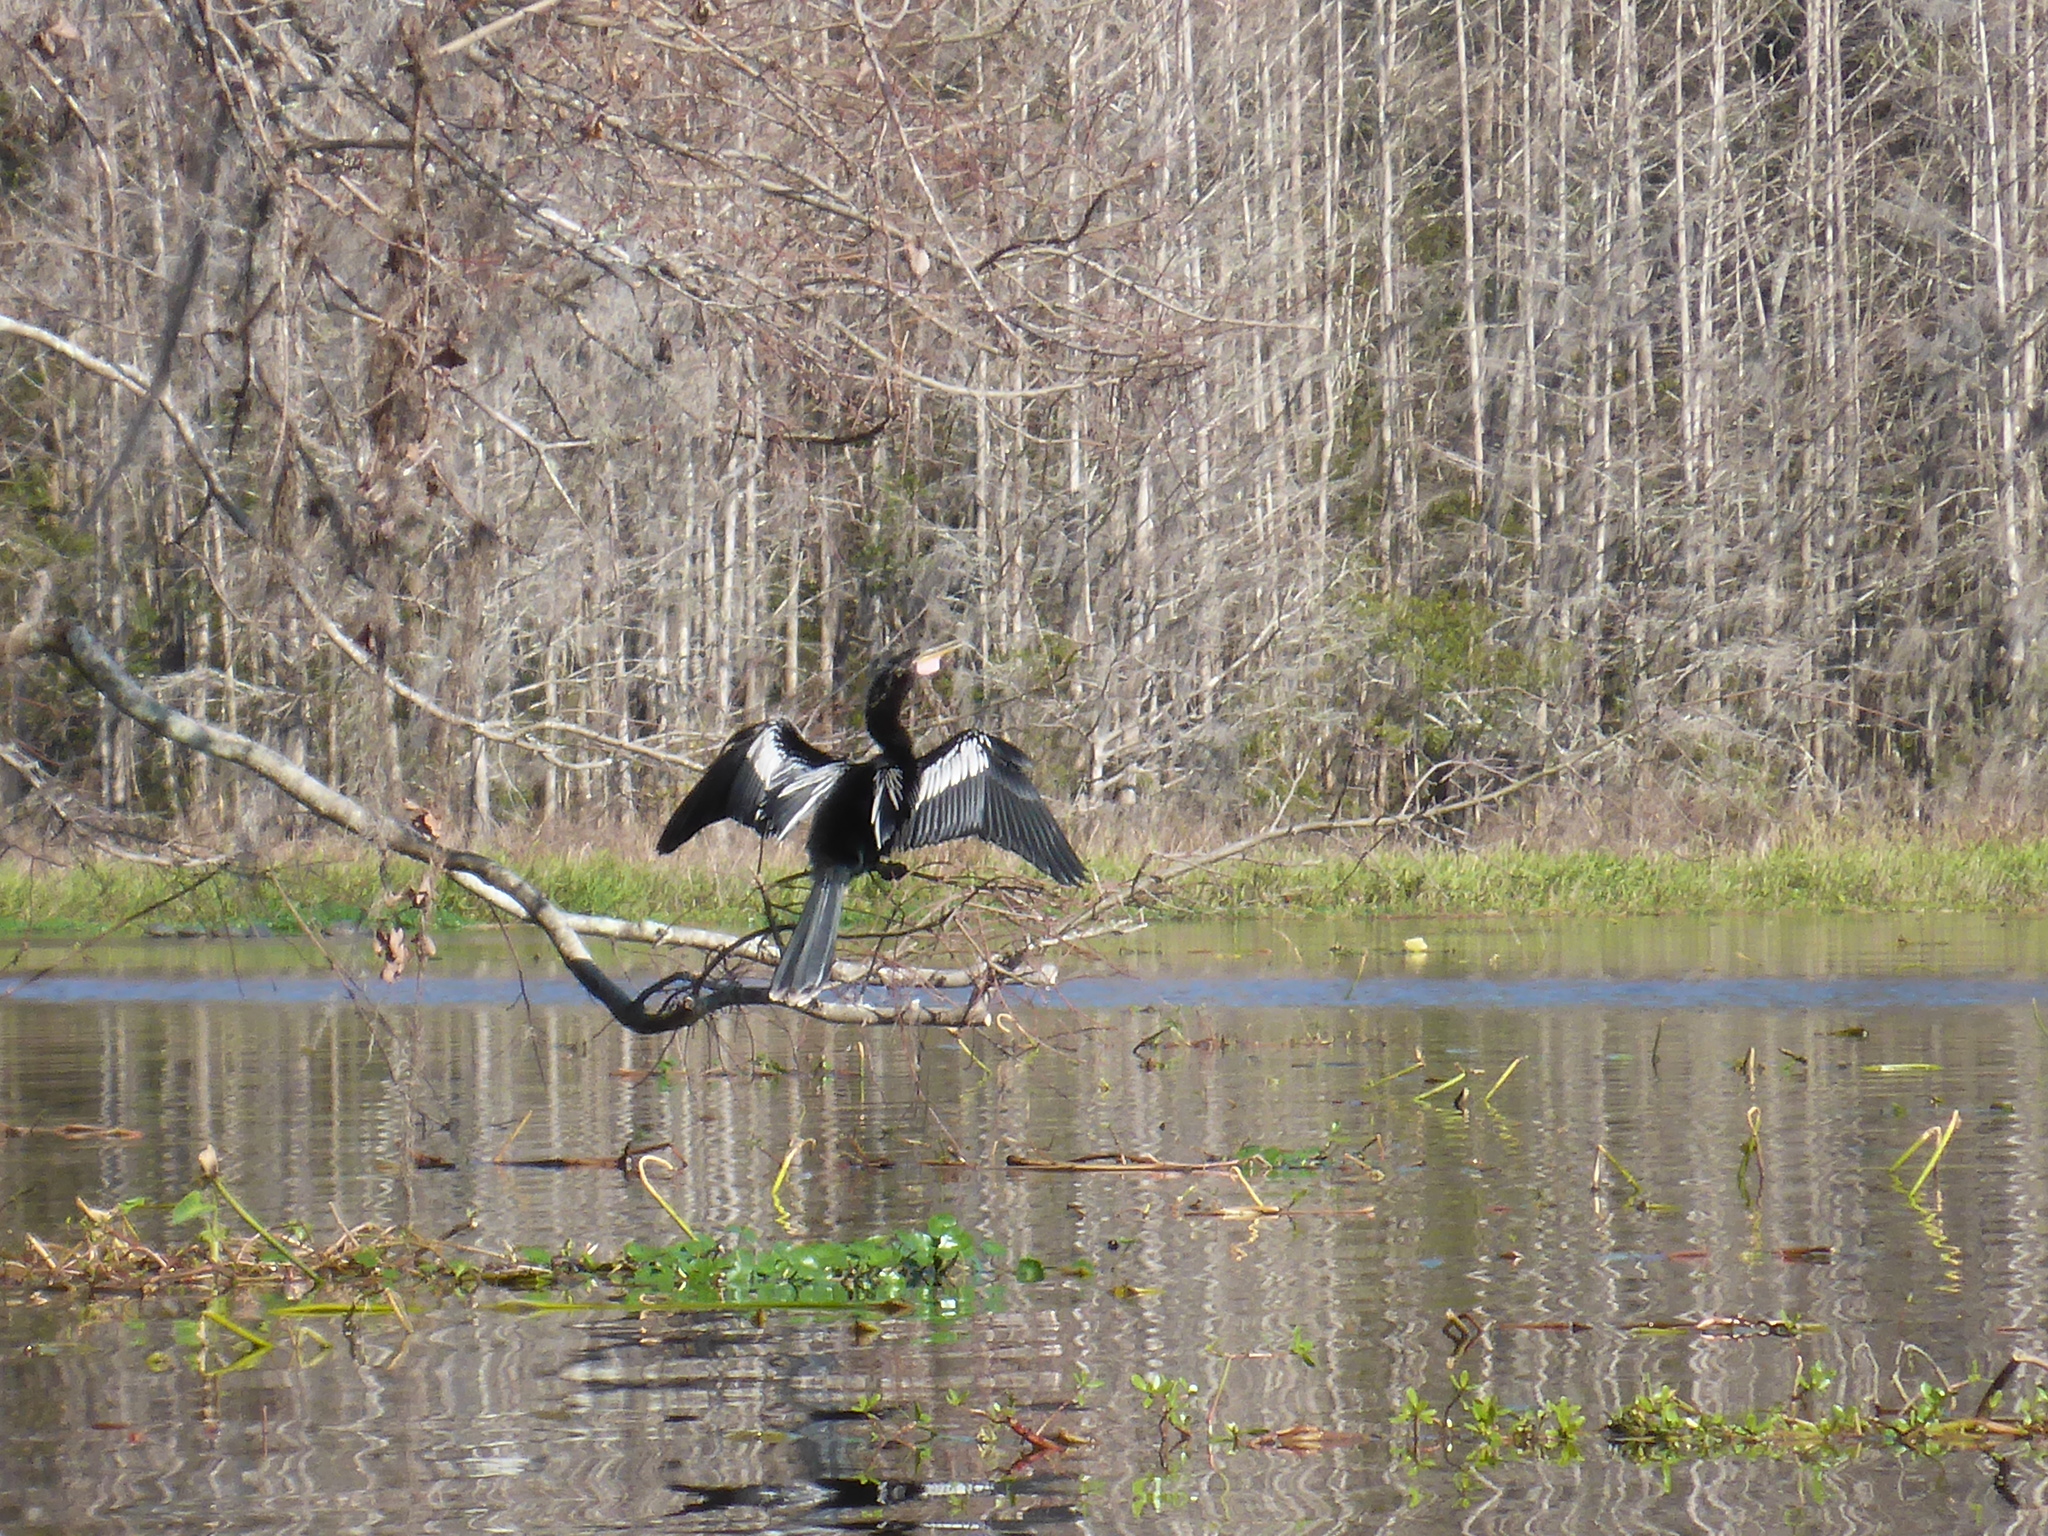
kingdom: Animalia
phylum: Chordata
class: Aves
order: Suliformes
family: Anhingidae
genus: Anhinga
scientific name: Anhinga anhinga
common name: Anhinga
